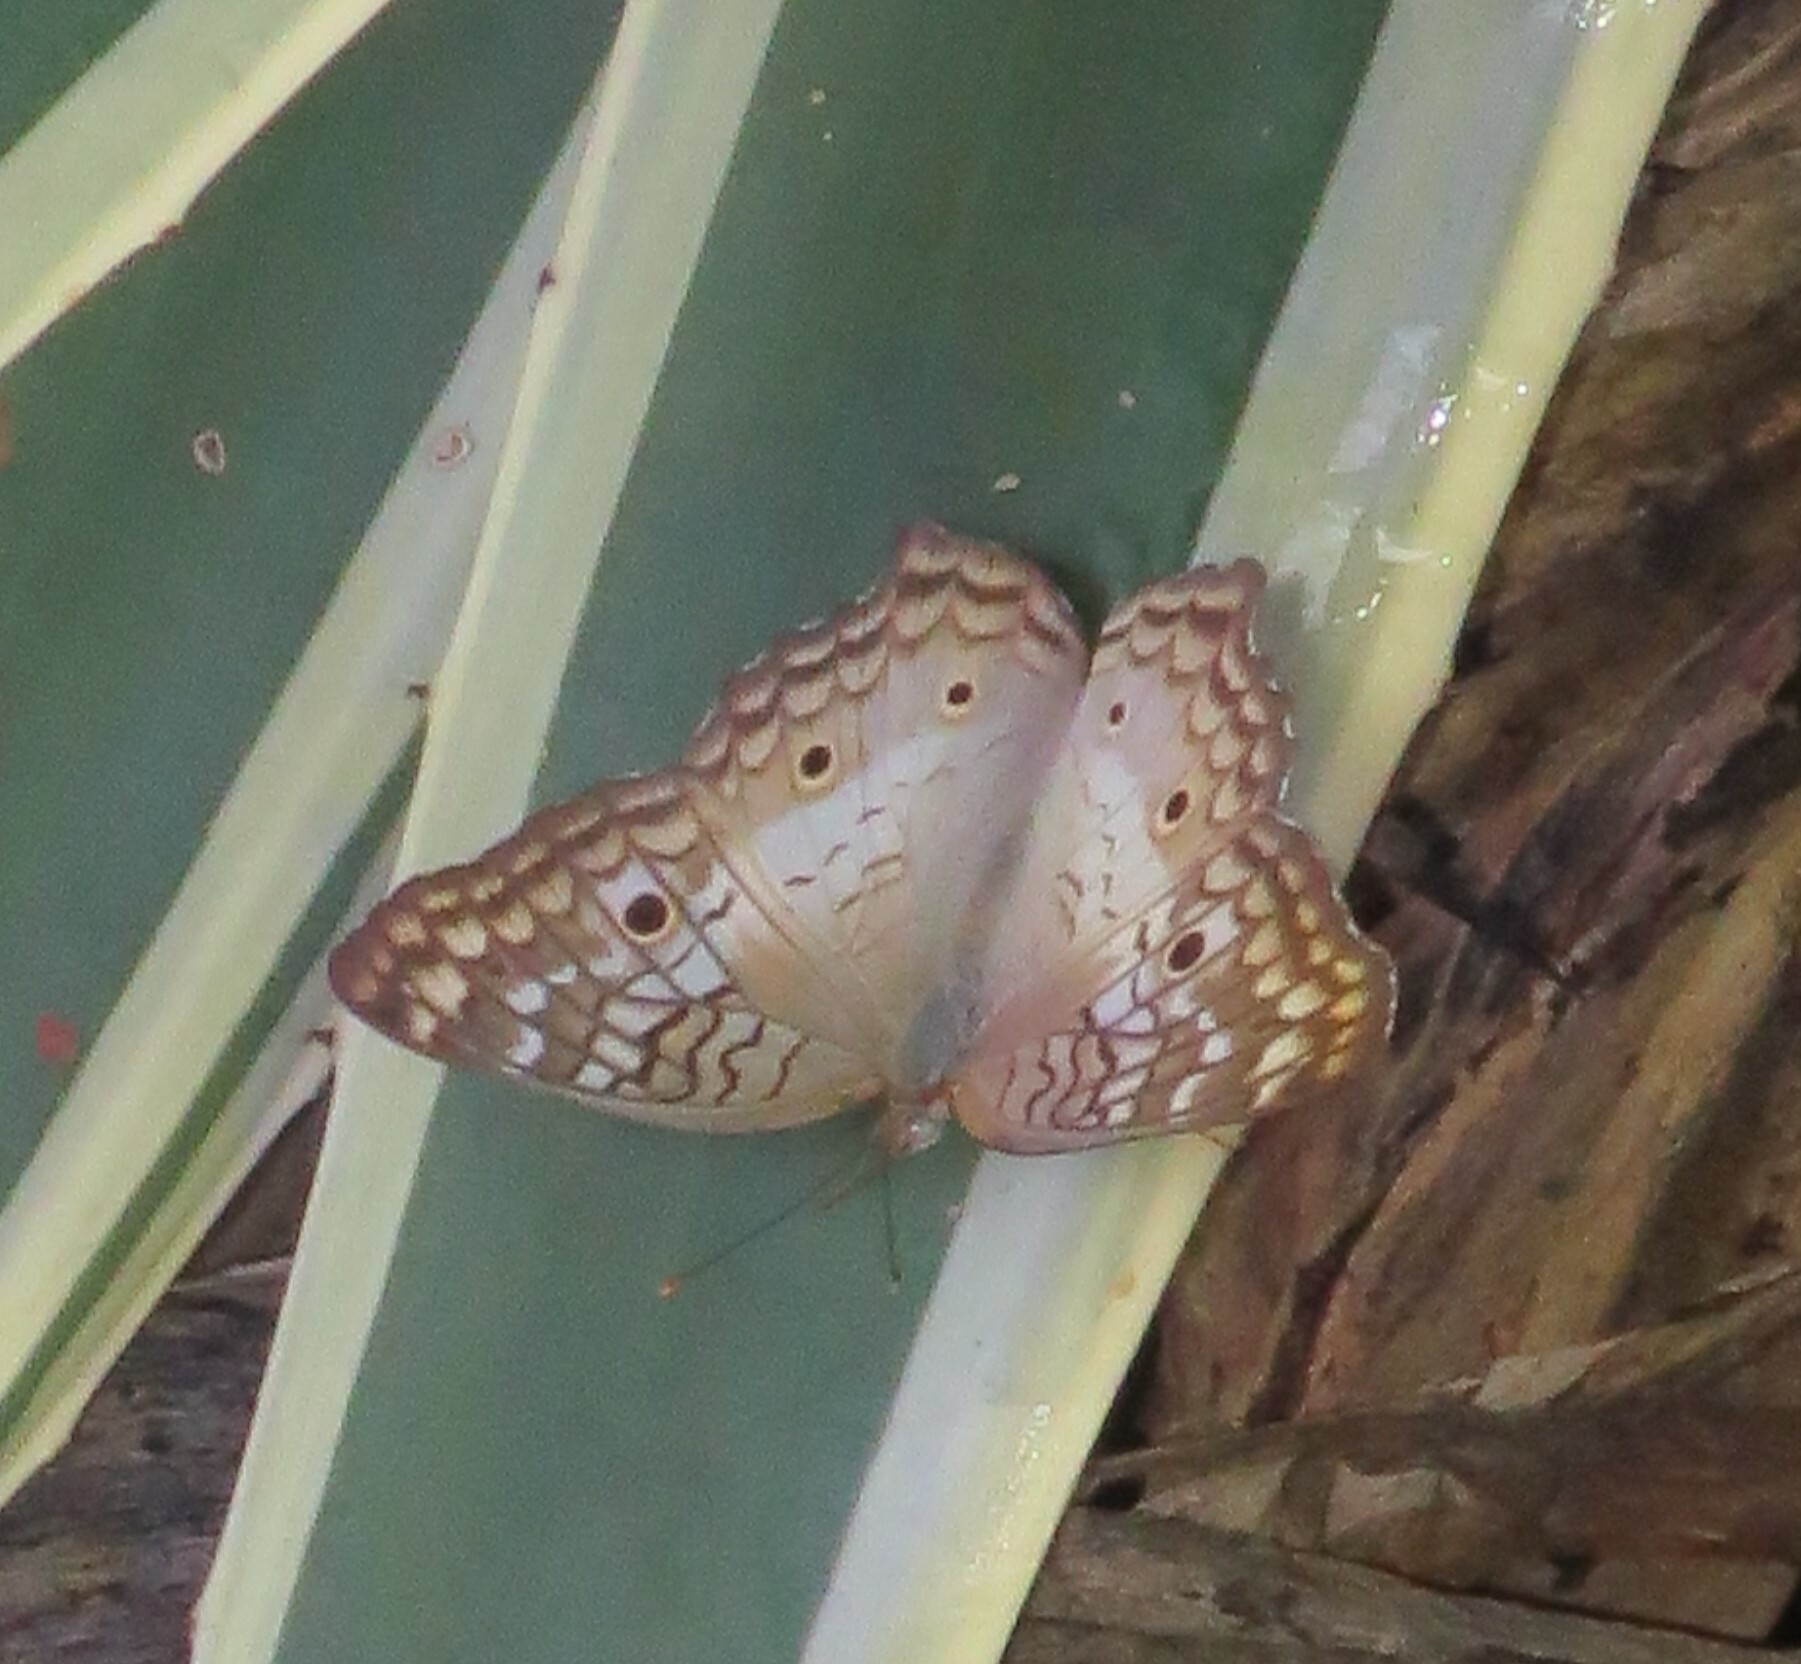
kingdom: Animalia
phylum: Arthropoda
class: Insecta
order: Lepidoptera
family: Nymphalidae
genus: Anartia
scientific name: Anartia jatrophae
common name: White peacock
